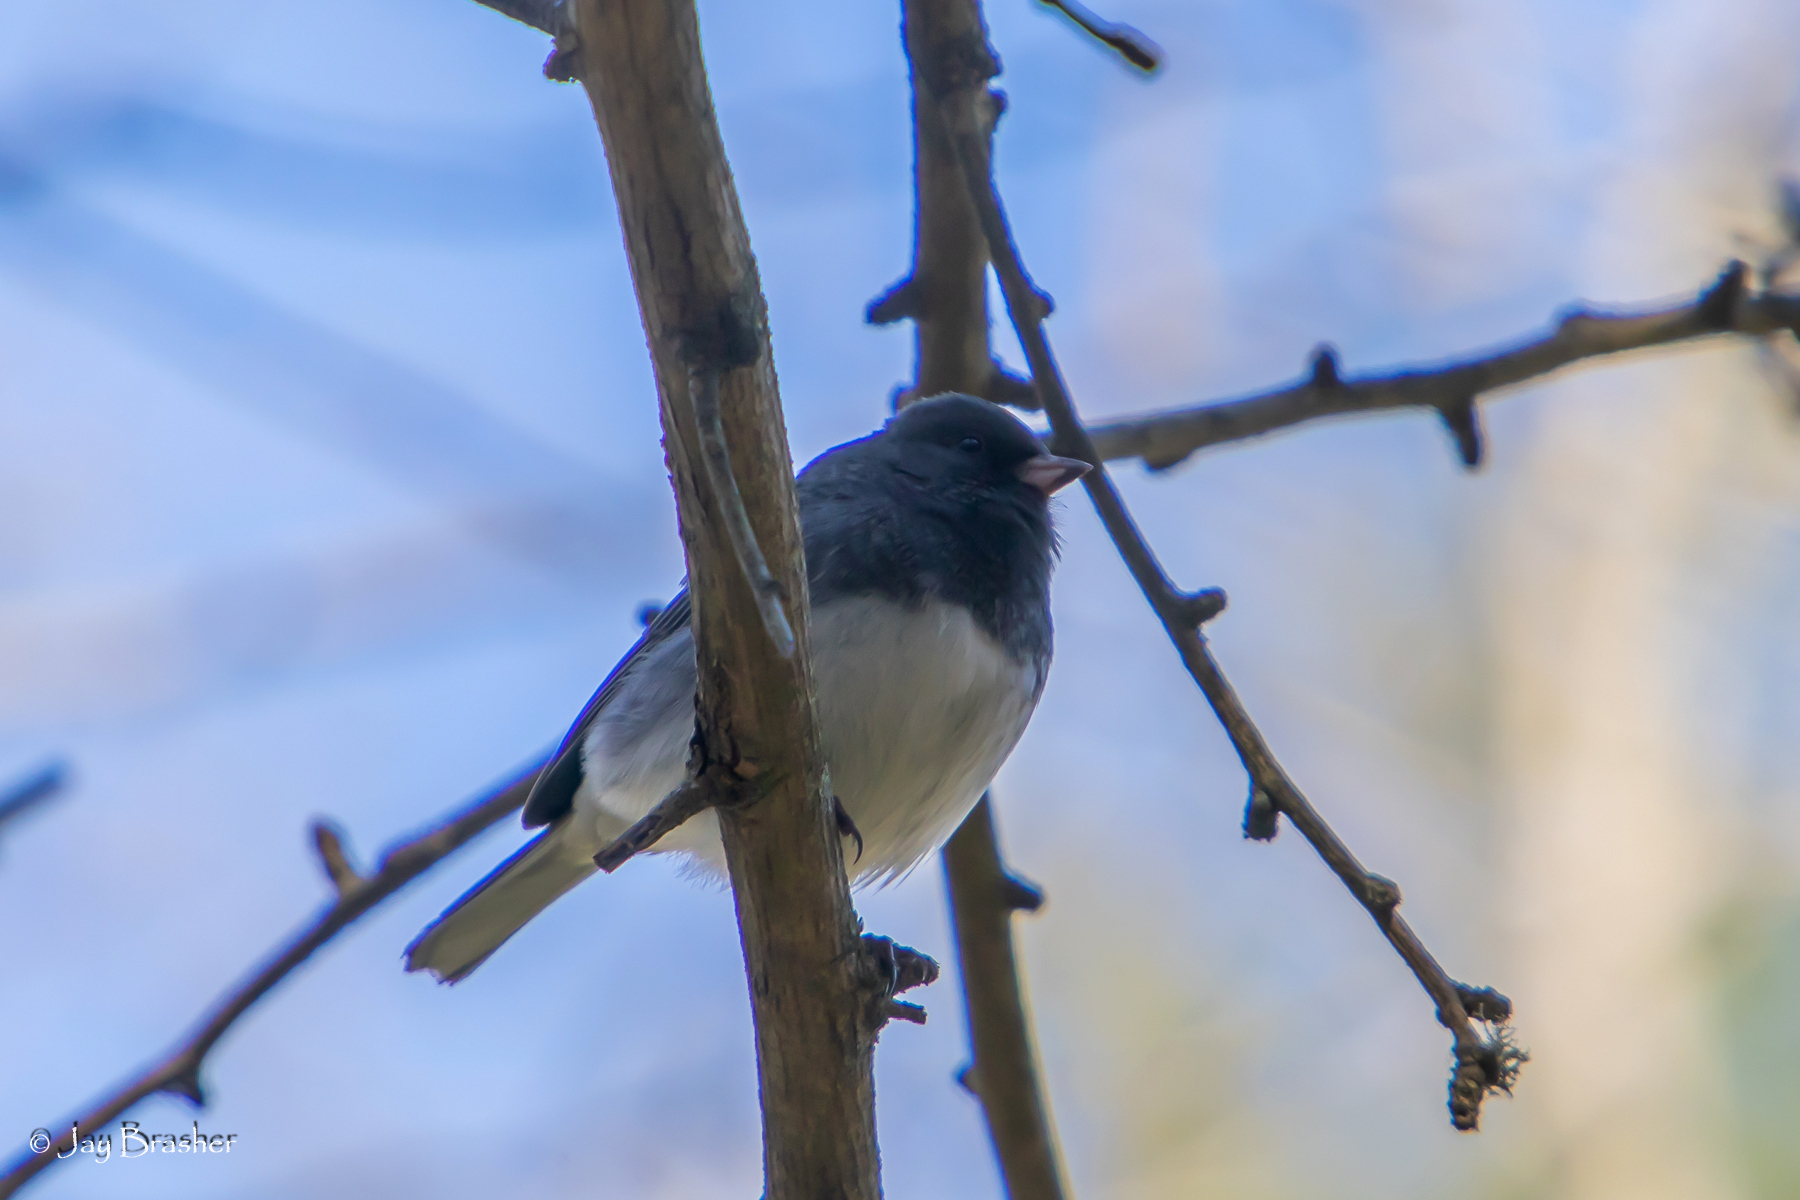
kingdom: Animalia
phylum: Chordata
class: Aves
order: Passeriformes
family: Passerellidae
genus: Junco
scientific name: Junco hyemalis
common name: Dark-eyed junco
